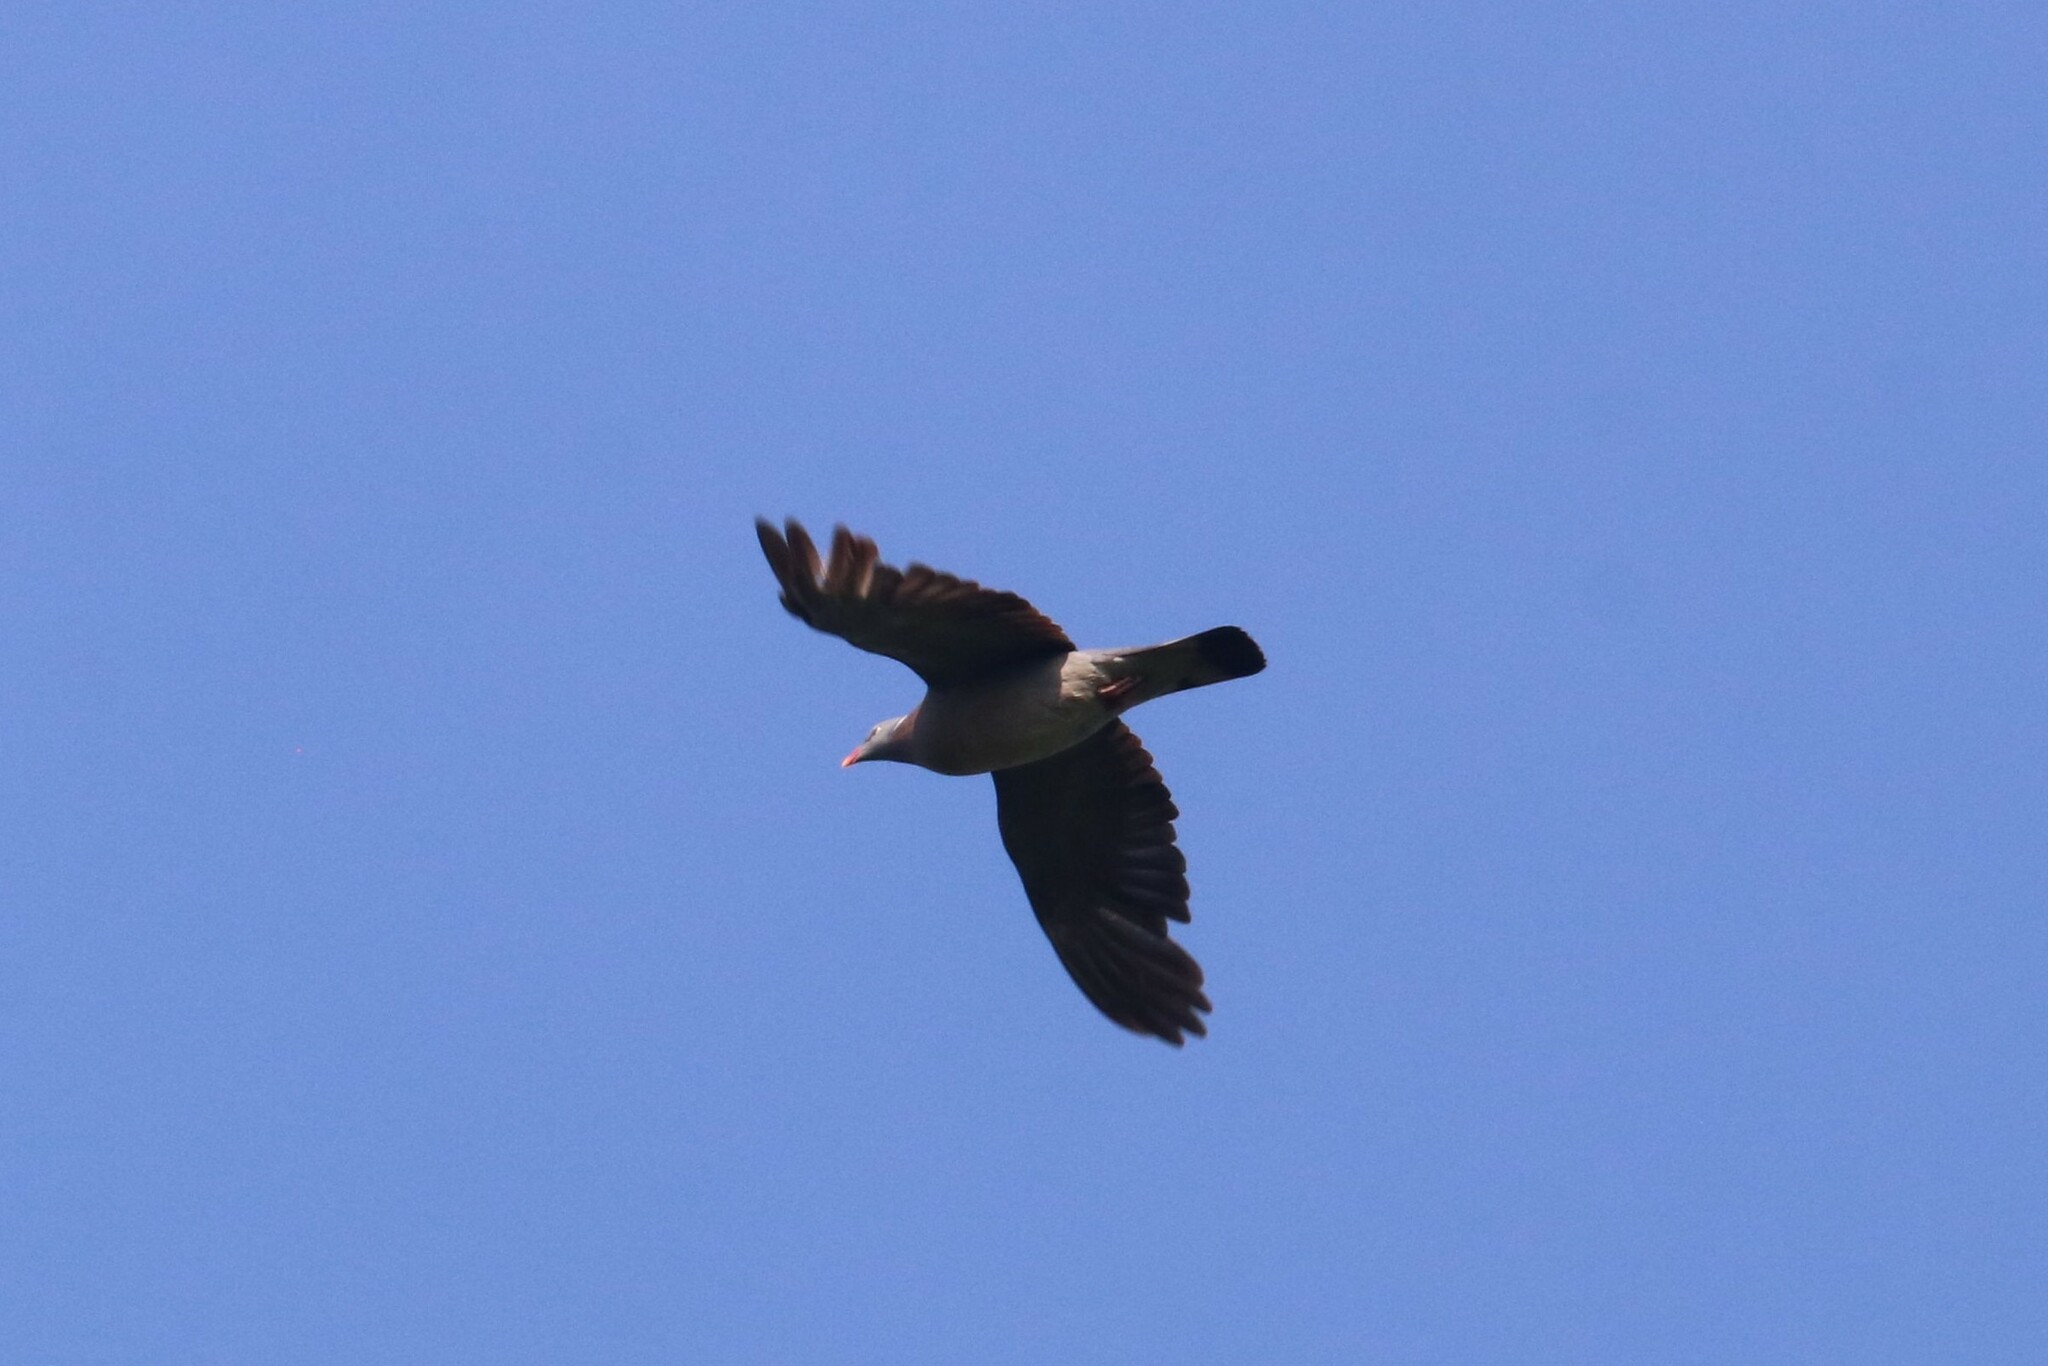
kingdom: Animalia
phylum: Chordata
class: Aves
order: Columbiformes
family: Columbidae
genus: Columba
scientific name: Columba palumbus
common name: Common wood pigeon
